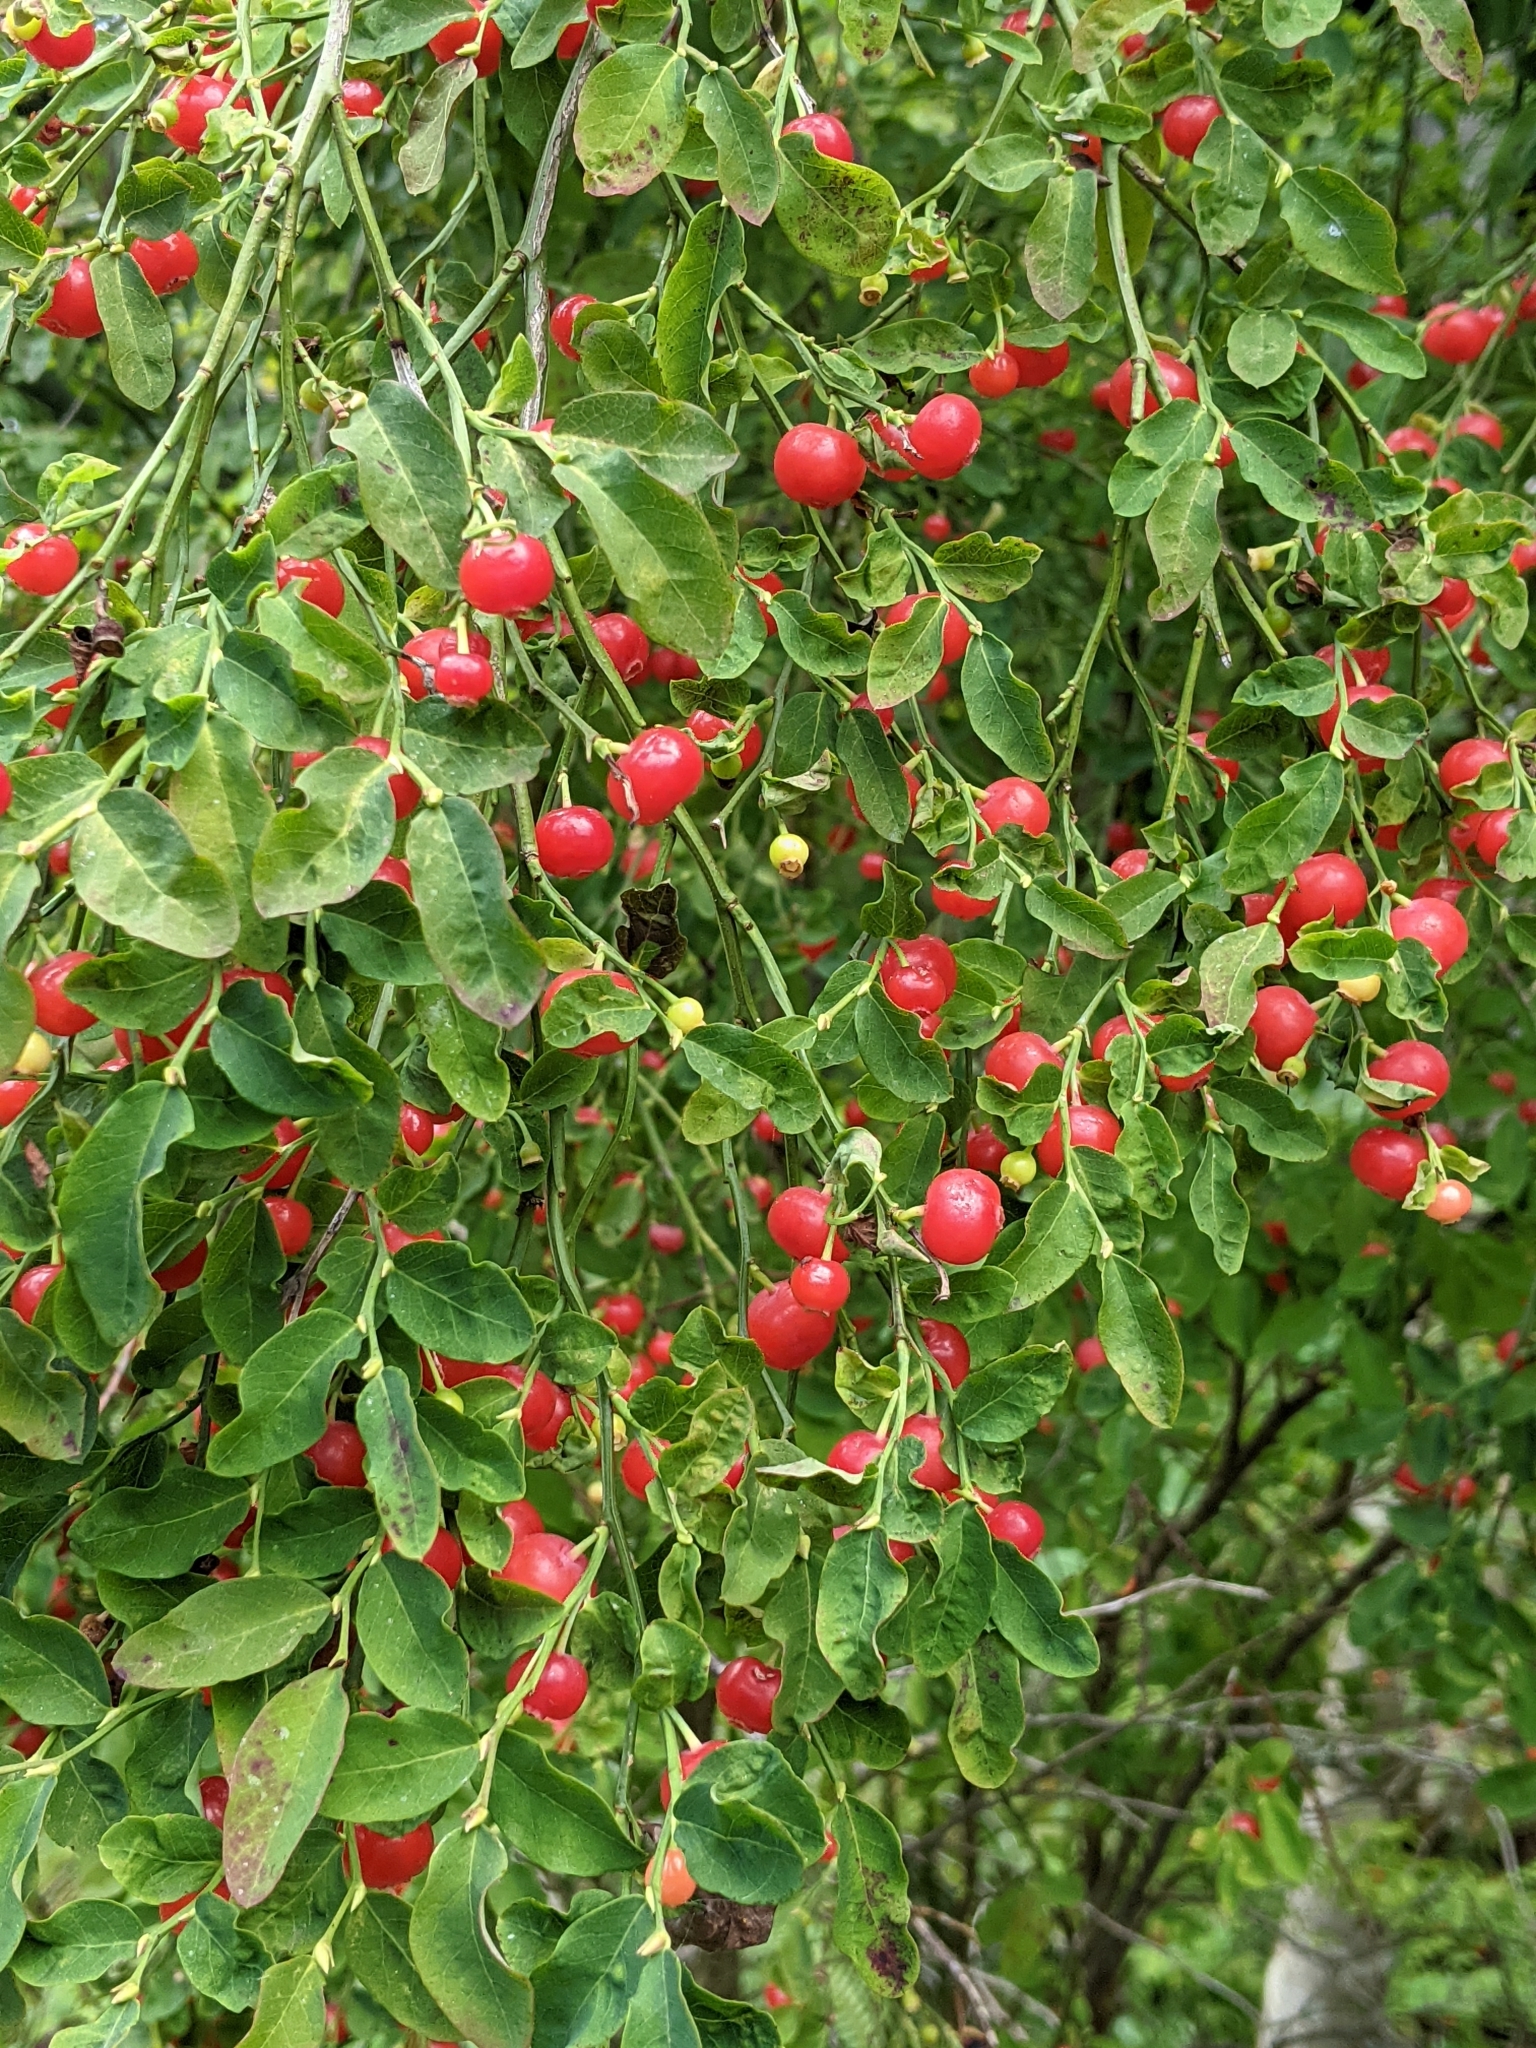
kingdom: Plantae
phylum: Tracheophyta
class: Magnoliopsida
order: Ericales
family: Ericaceae
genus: Vaccinium
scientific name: Vaccinium parvifolium
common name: Red-huckleberry
